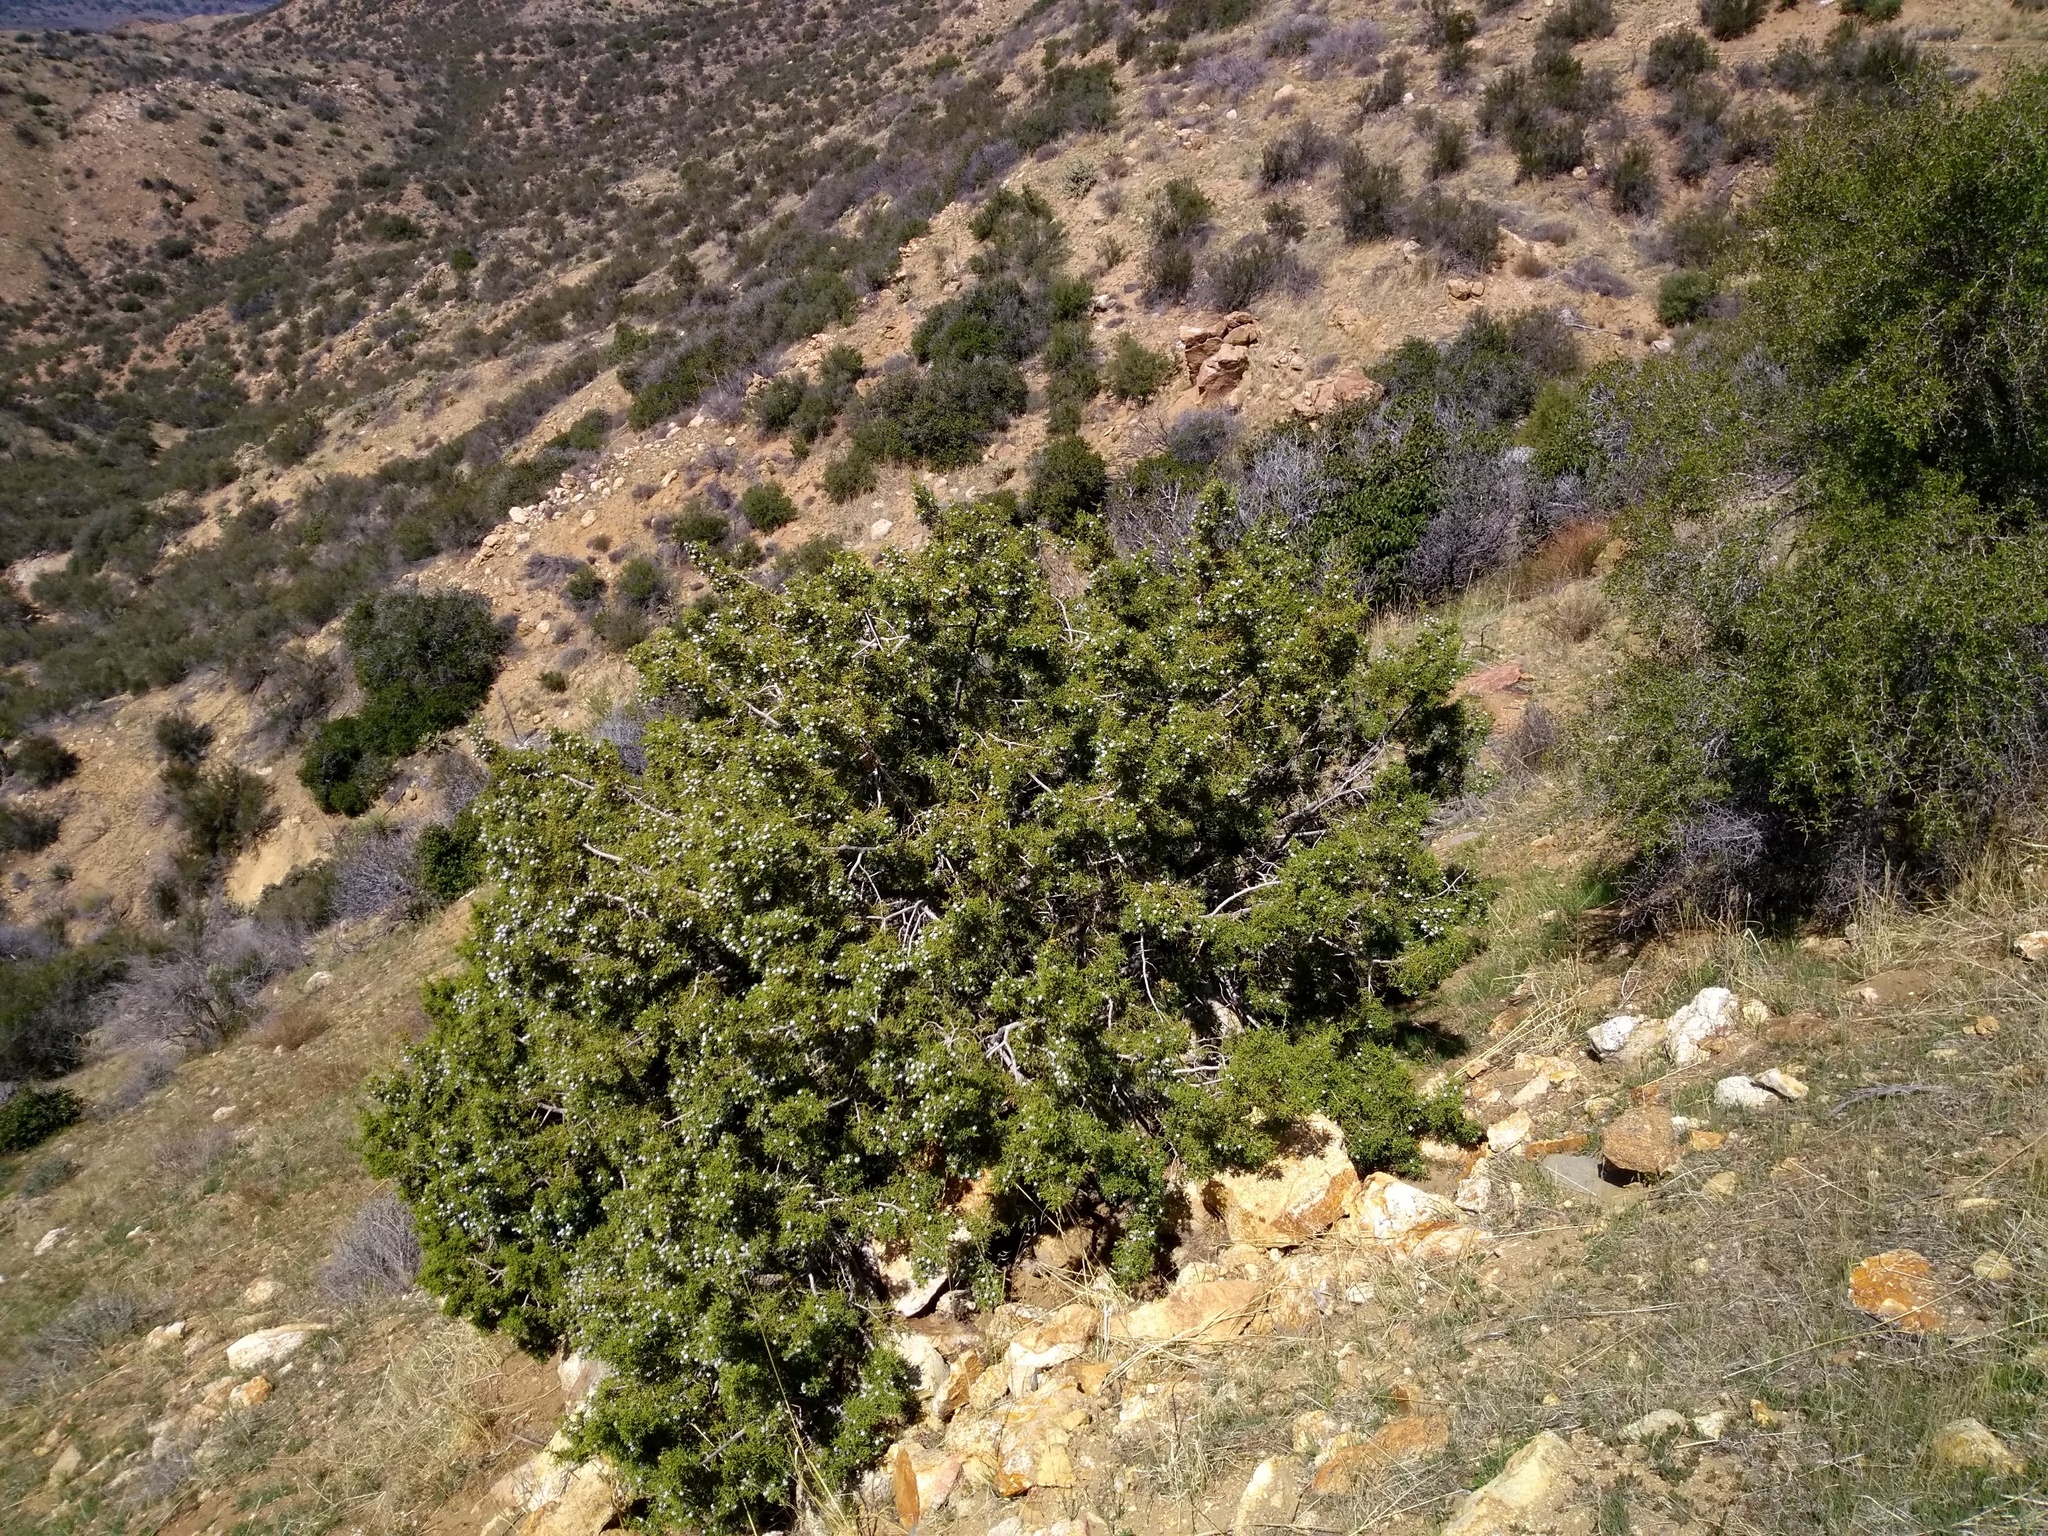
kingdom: Plantae
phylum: Tracheophyta
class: Pinopsida
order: Pinales
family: Cupressaceae
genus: Juniperus
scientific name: Juniperus californica
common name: California juniper
